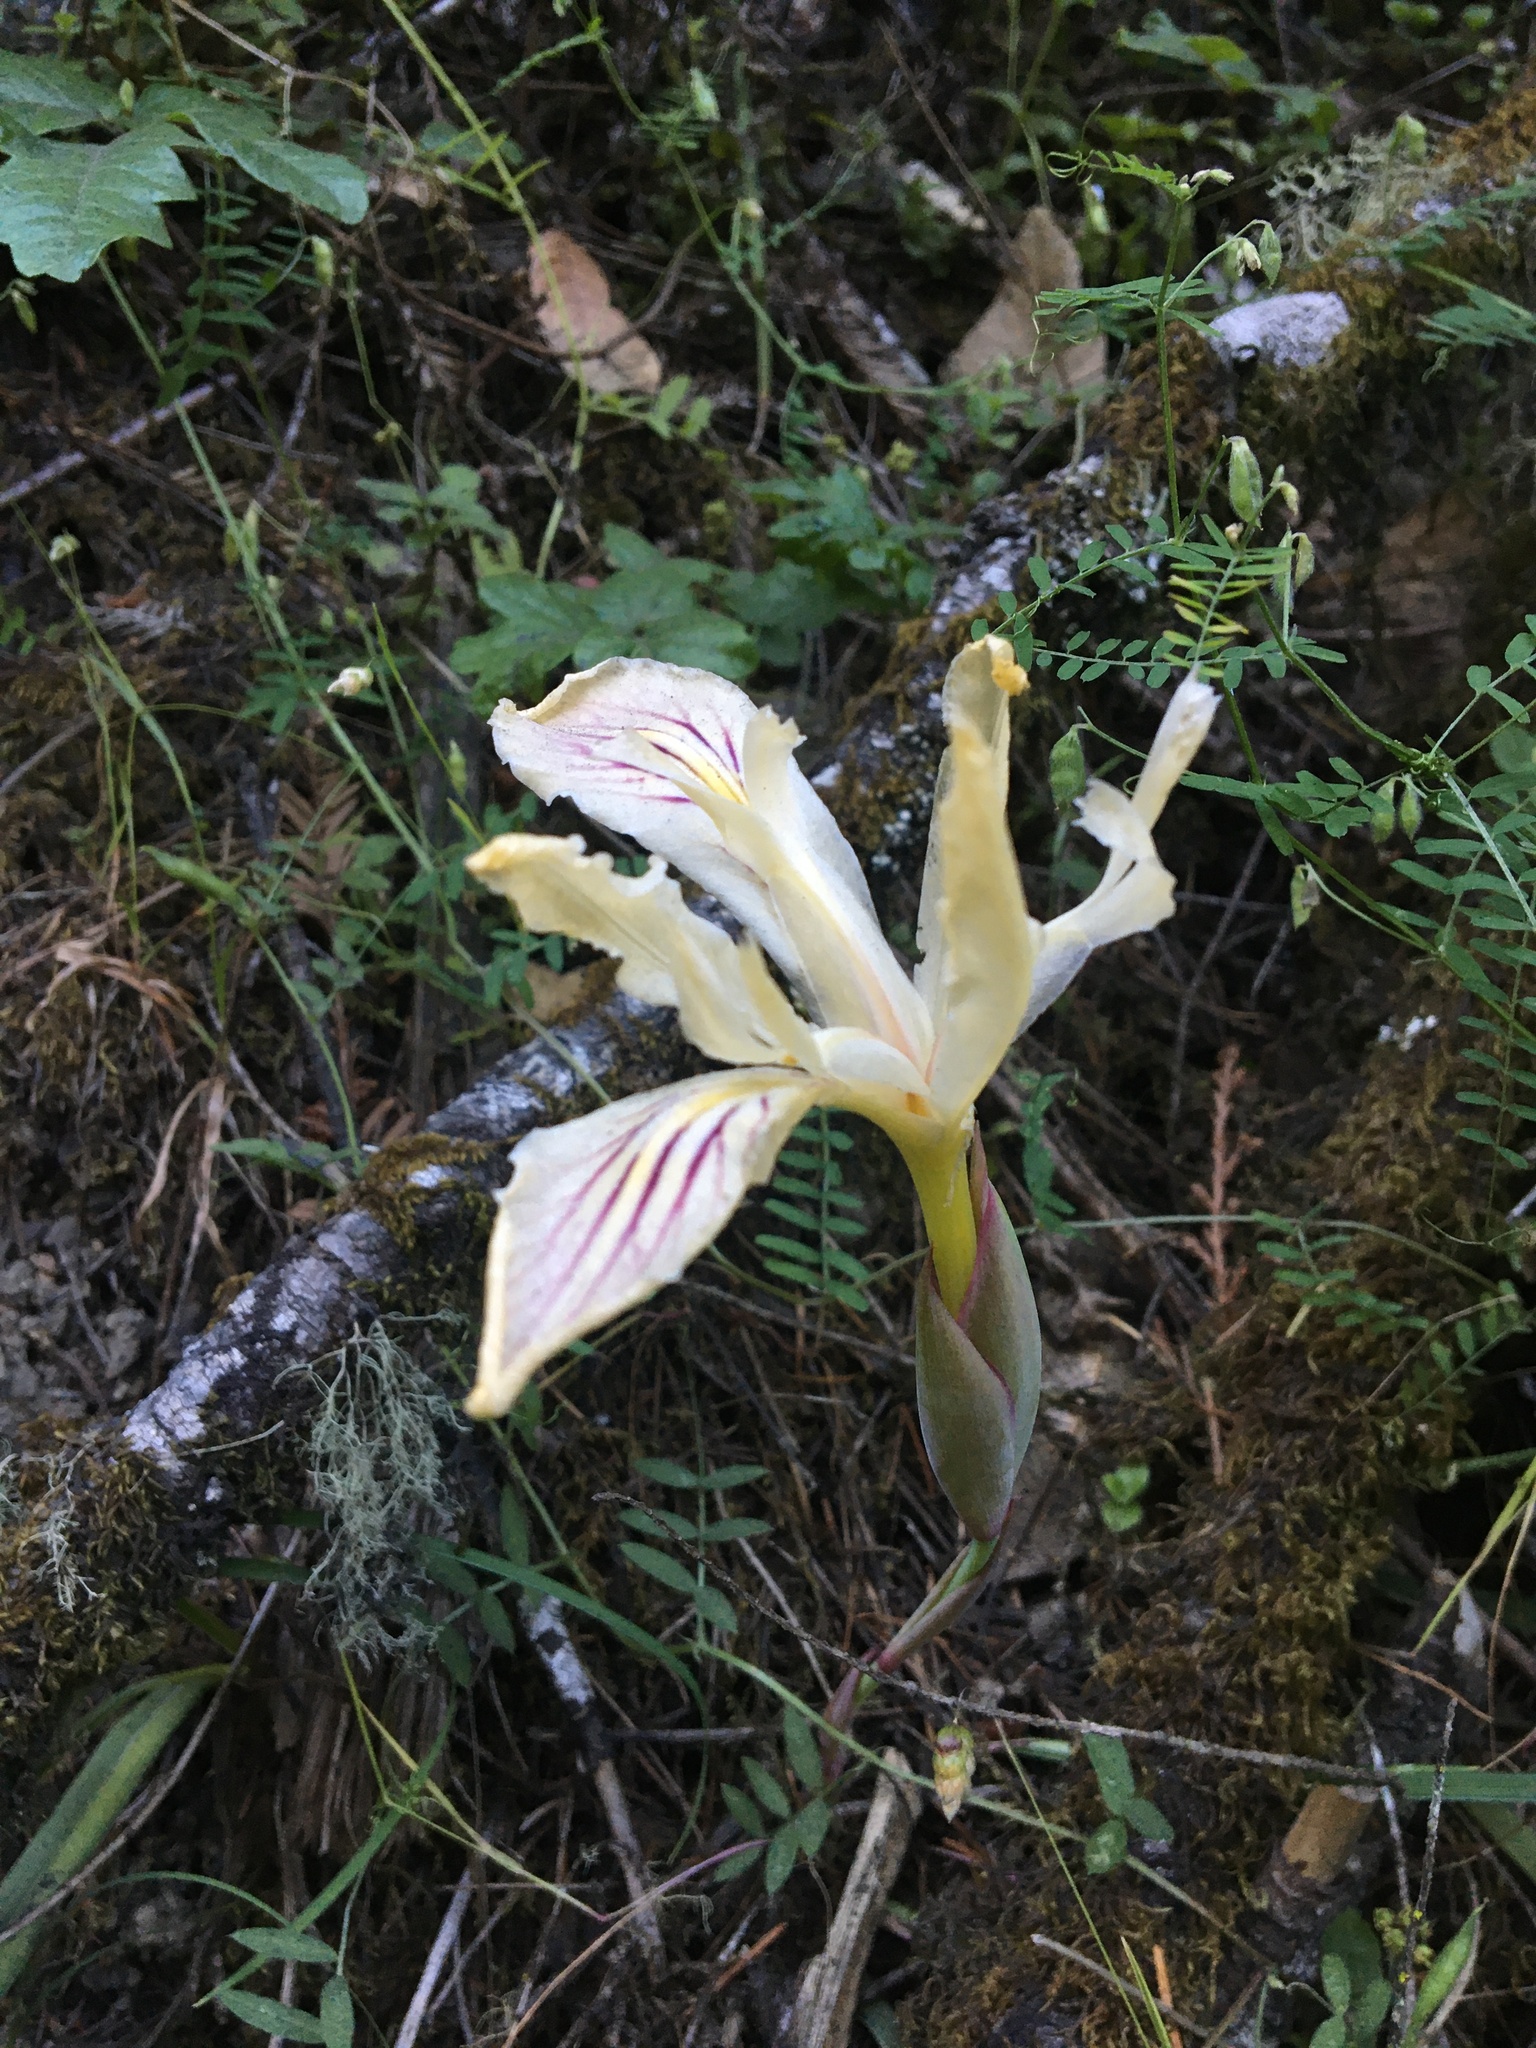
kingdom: Plantae
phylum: Tracheophyta
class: Liliopsida
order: Asparagales
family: Iridaceae
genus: Iris
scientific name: Iris purdyi
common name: Purdy's iris
